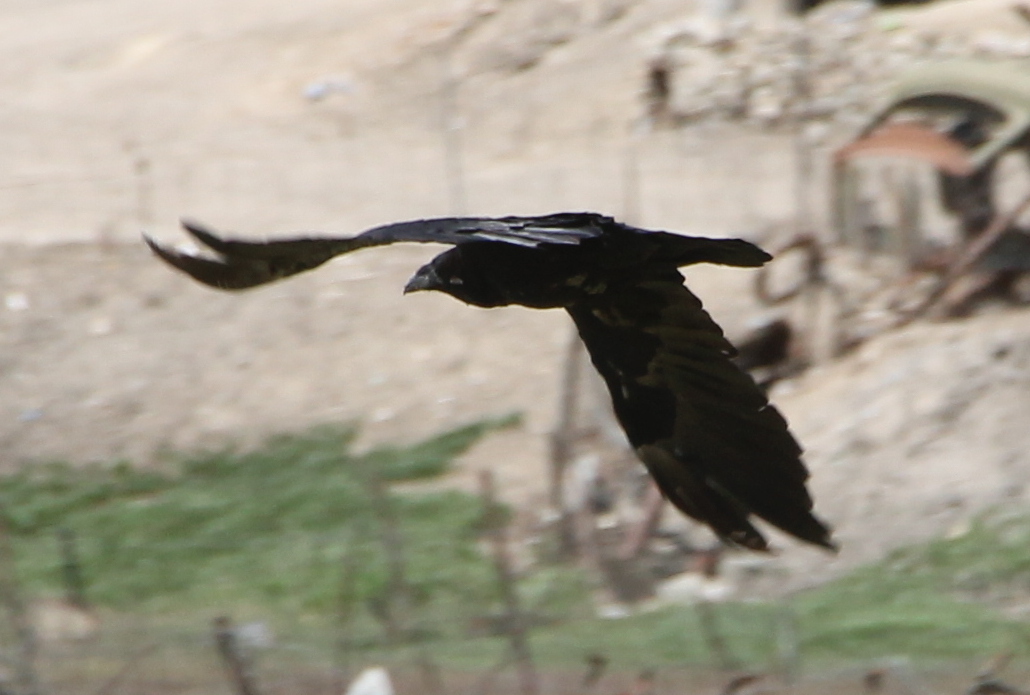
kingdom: Animalia
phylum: Chordata
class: Aves
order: Passeriformes
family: Corvidae
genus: Corvus
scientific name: Corvus corax
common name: Common raven
